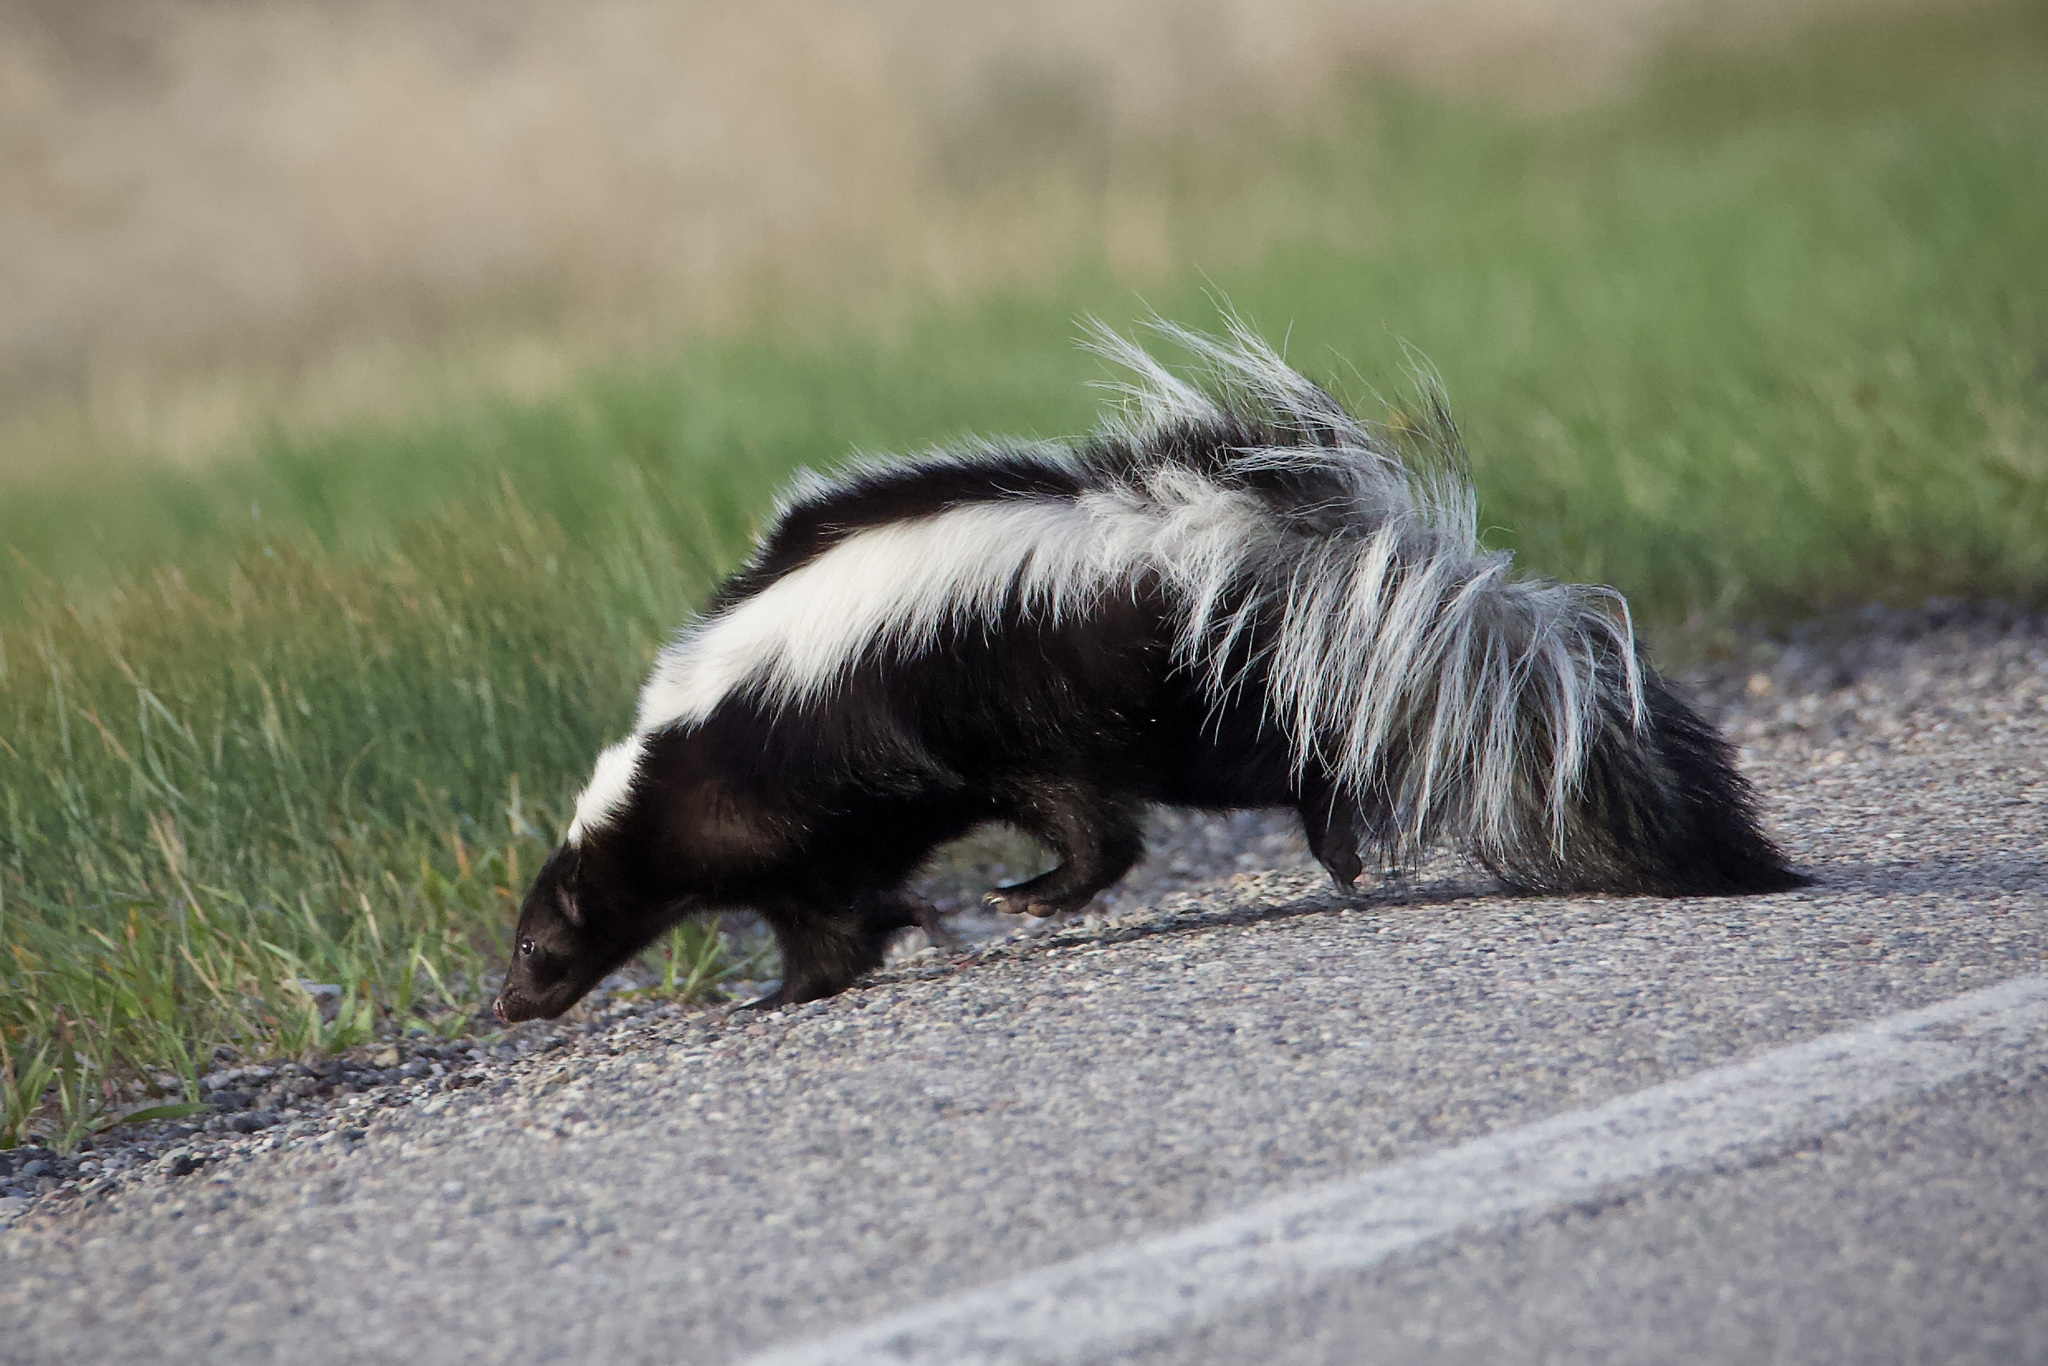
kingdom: Animalia
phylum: Chordata
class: Mammalia
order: Carnivora
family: Mephitidae
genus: Mephitis
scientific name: Mephitis mephitis
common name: Striped skunk
